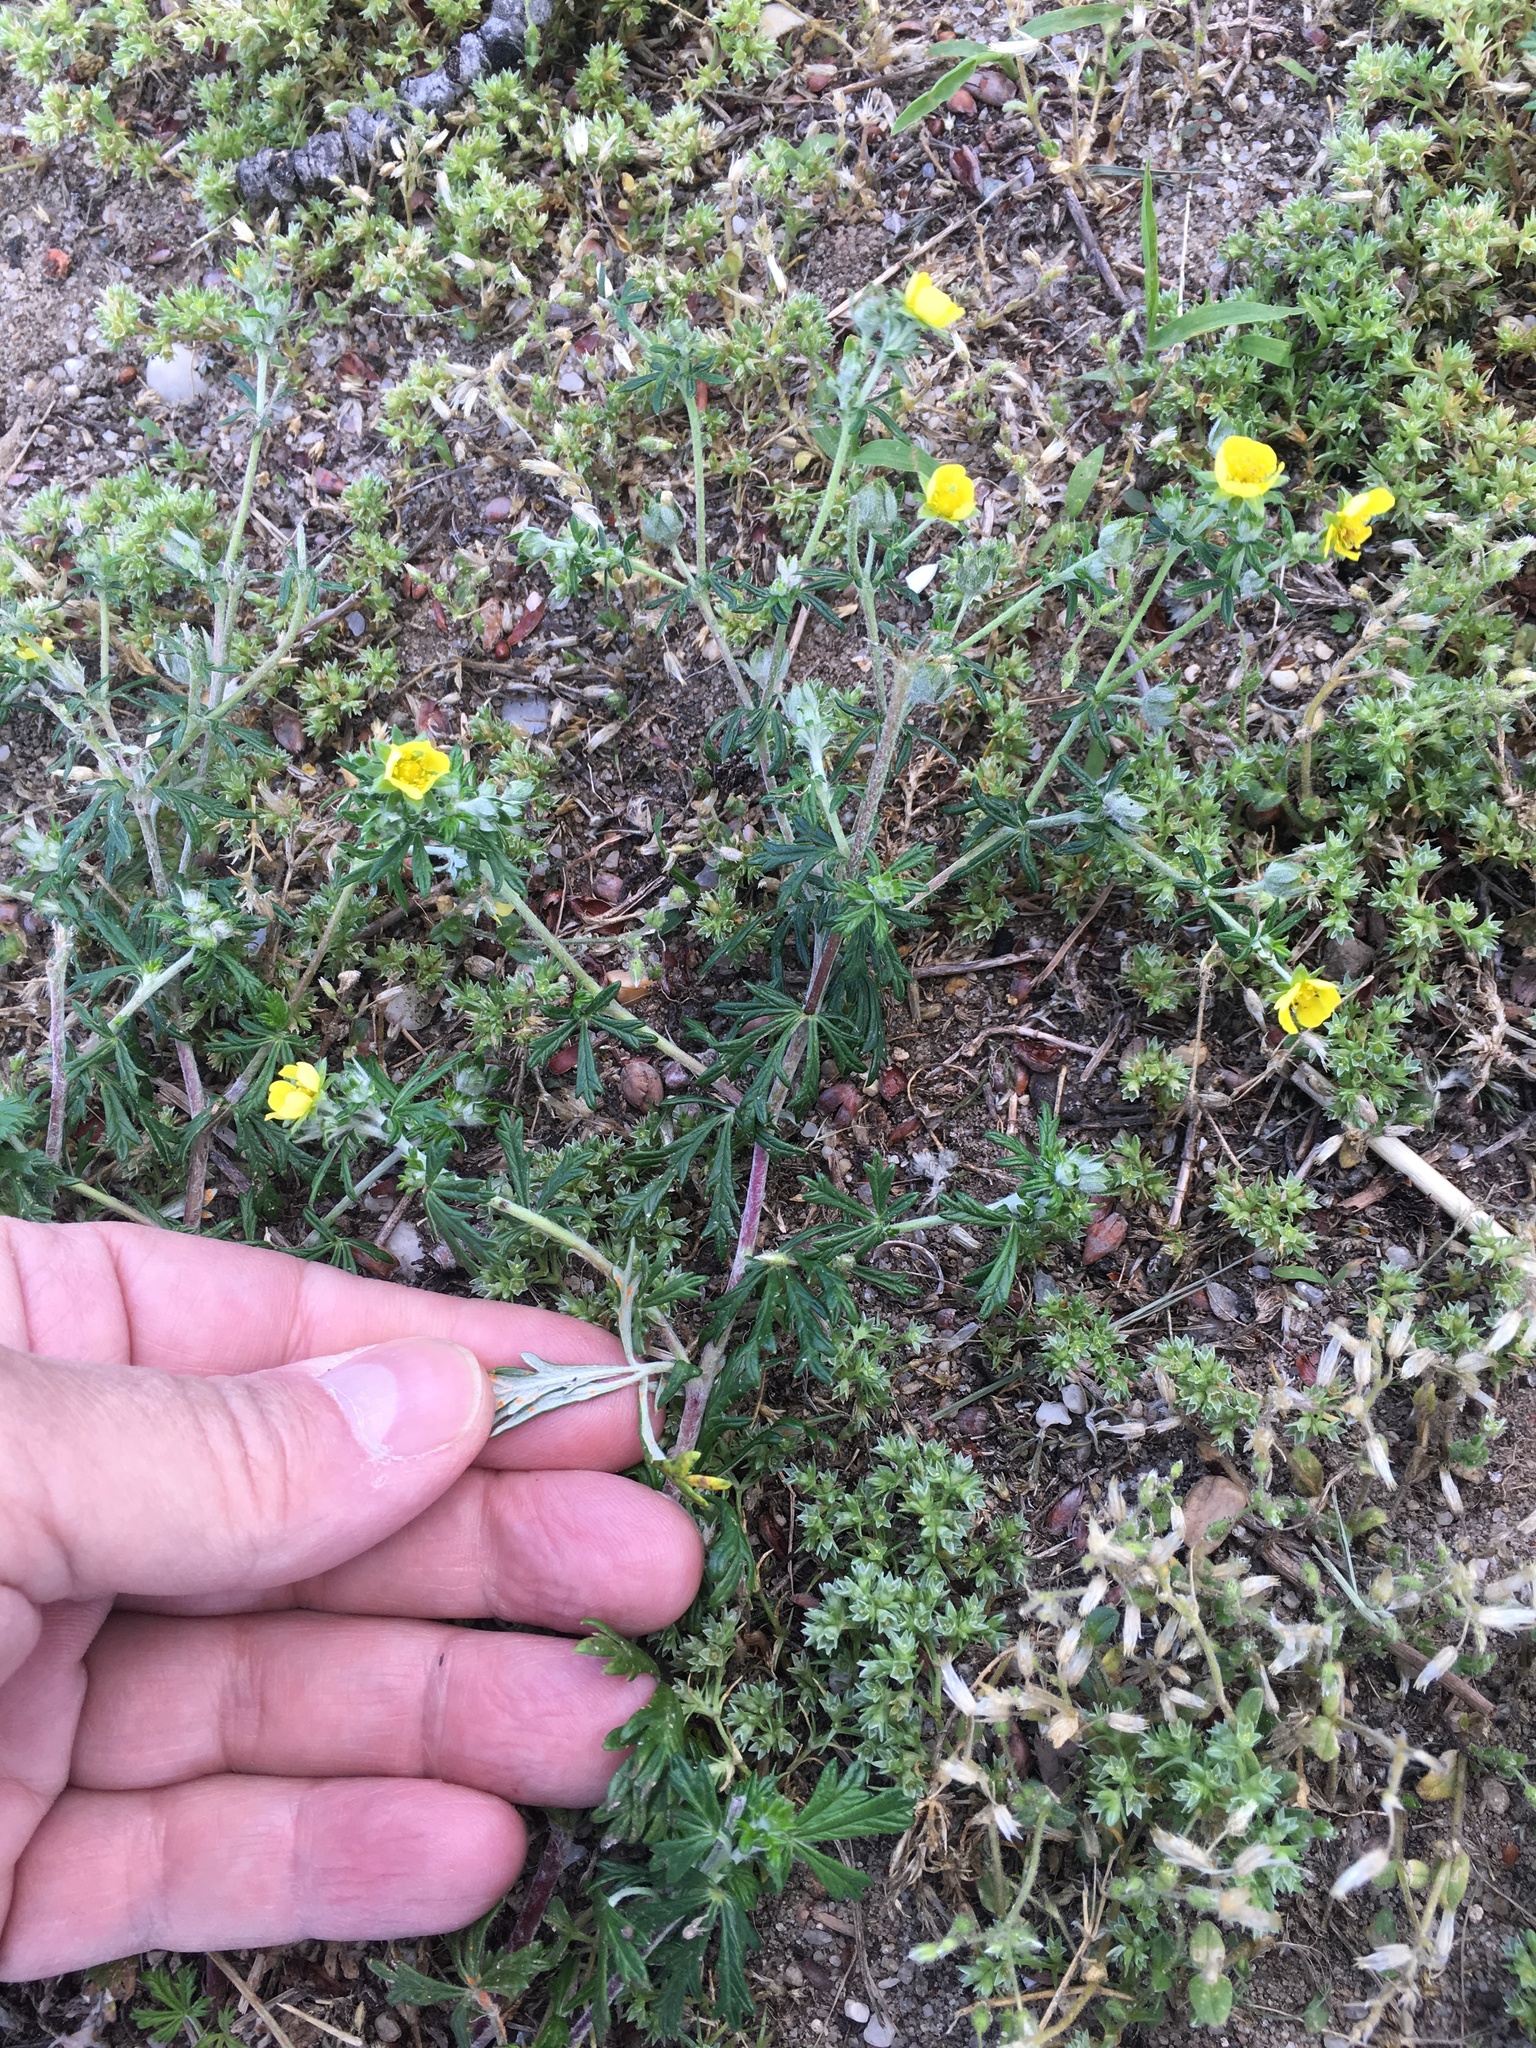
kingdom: Plantae
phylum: Tracheophyta
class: Magnoliopsida
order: Rosales
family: Rosaceae
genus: Potentilla
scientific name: Potentilla argentea
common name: Hoary cinquefoil
